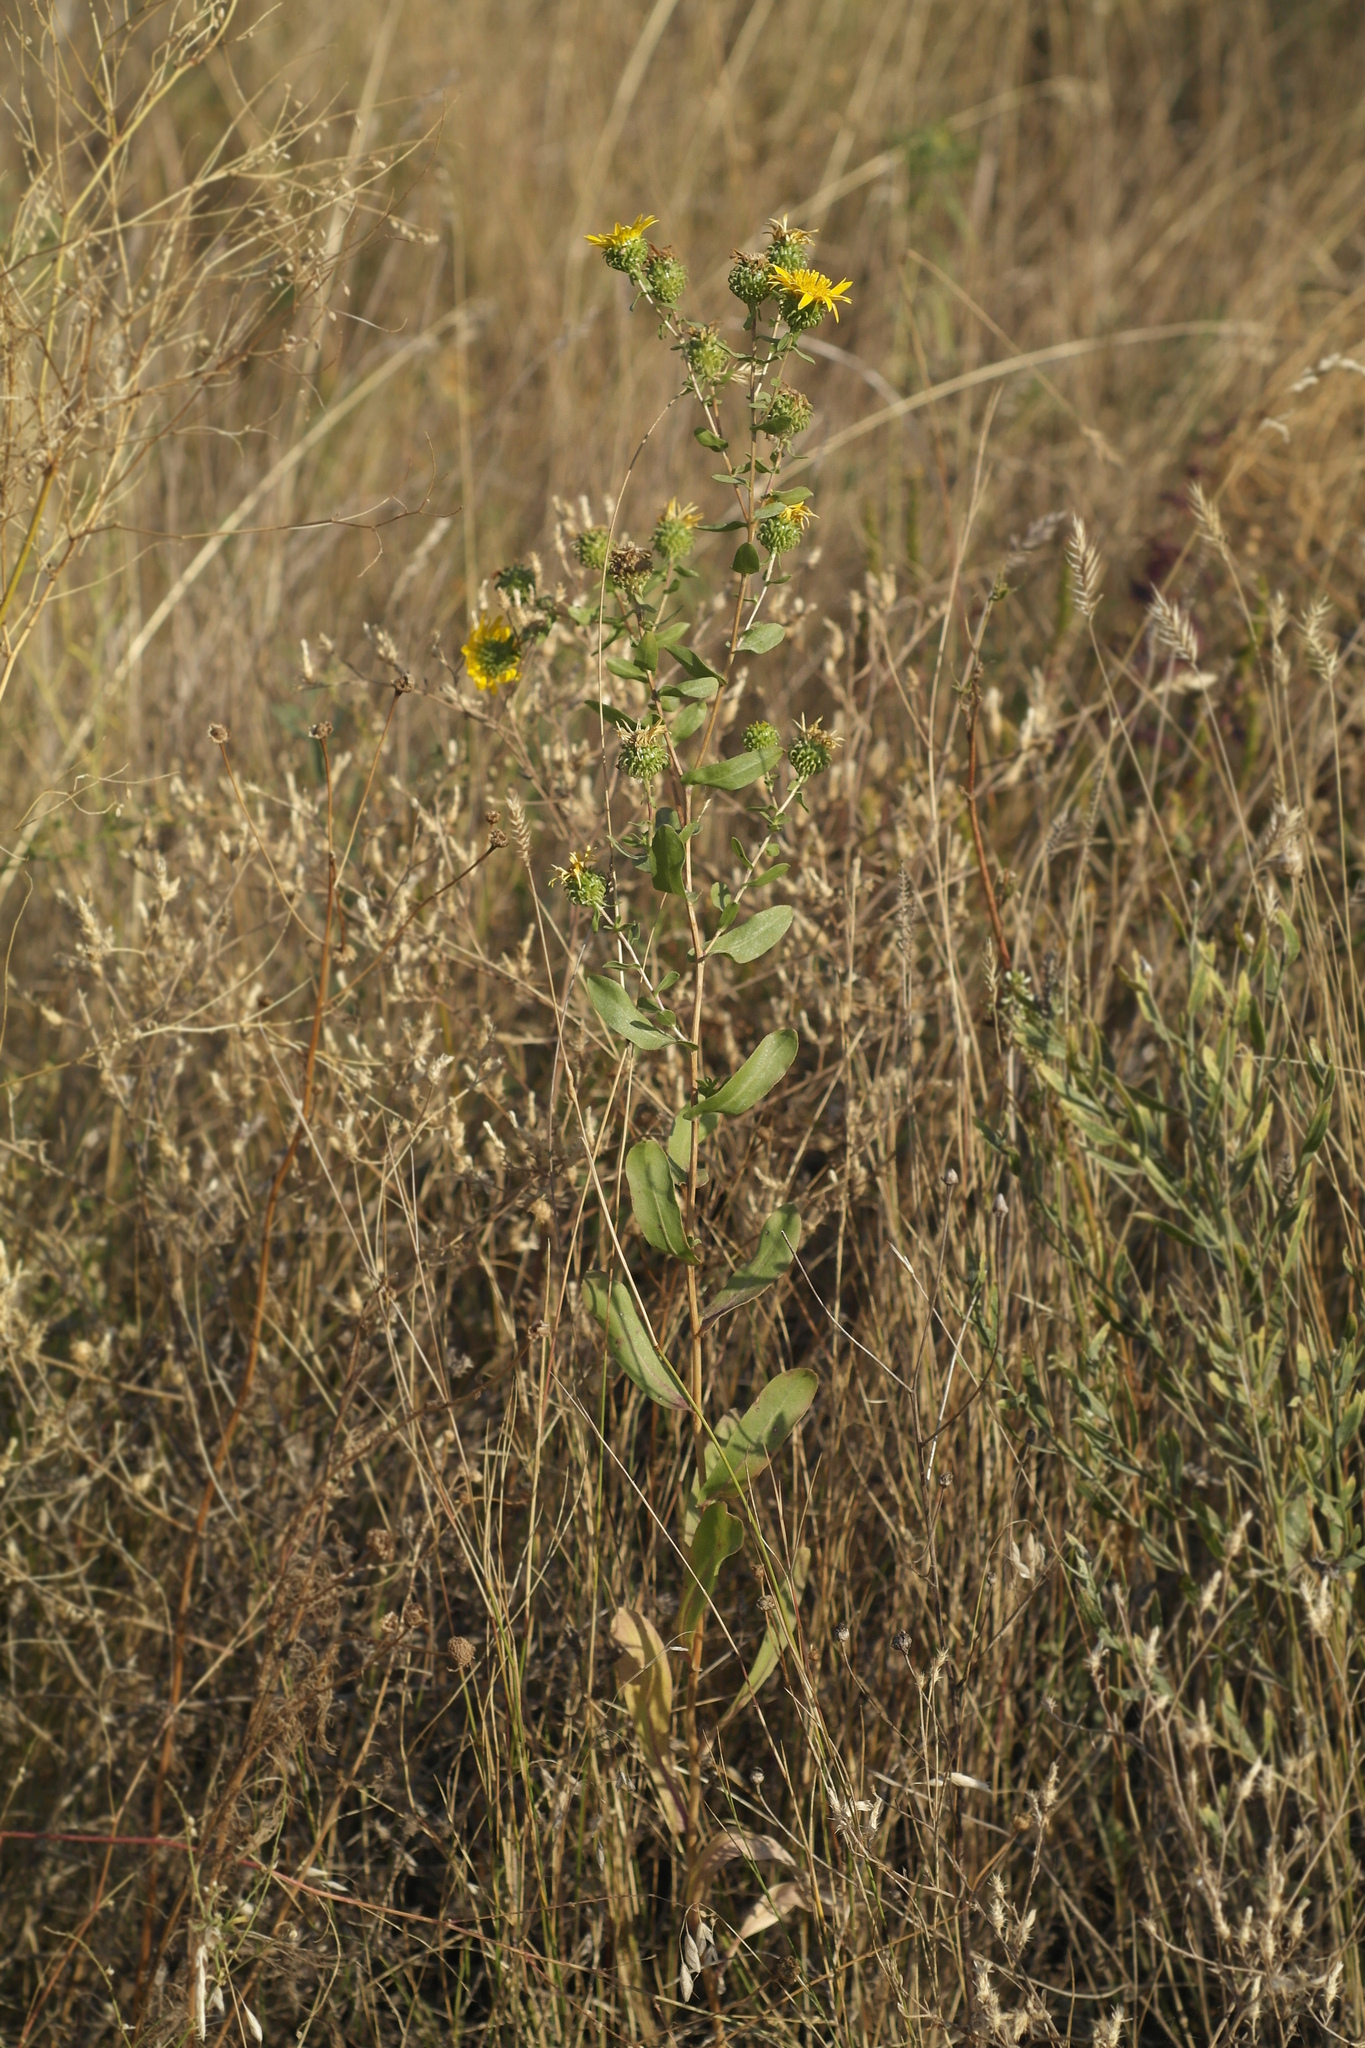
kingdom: Plantae
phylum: Tracheophyta
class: Magnoliopsida
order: Asterales
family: Asteraceae
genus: Grindelia
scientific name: Grindelia squarrosa
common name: Curly-cup gumweed
